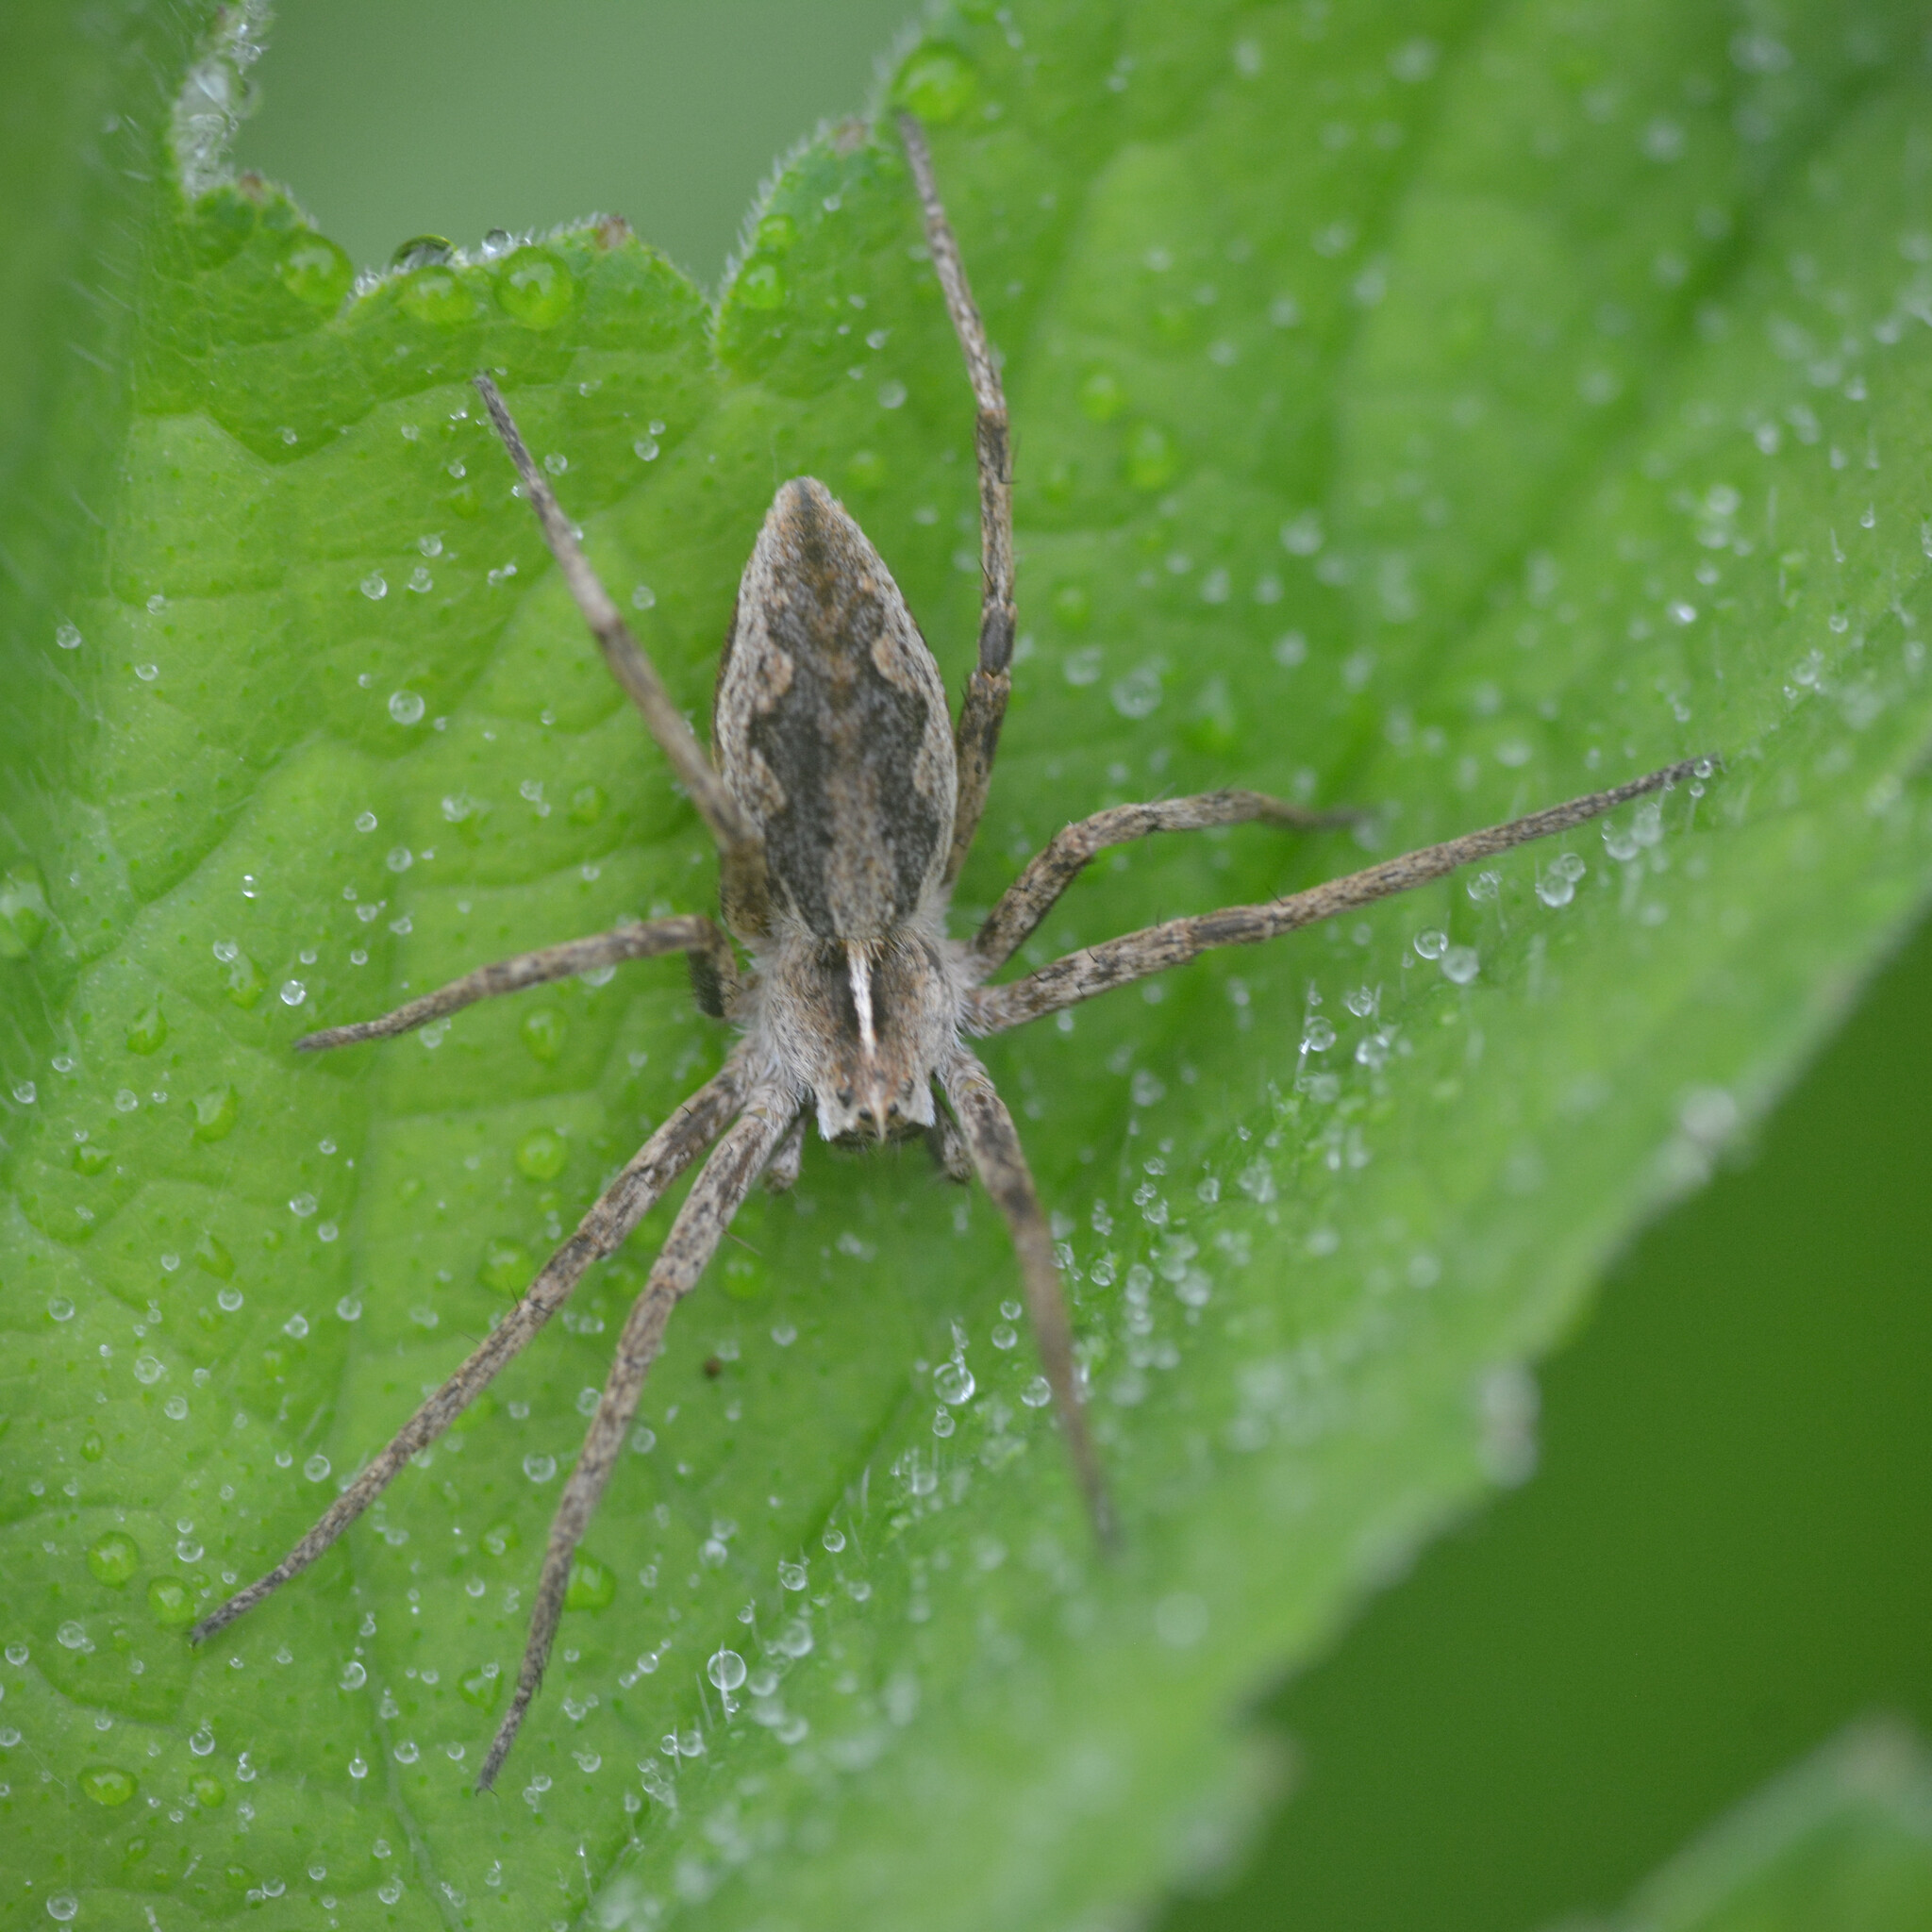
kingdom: Animalia
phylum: Arthropoda
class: Arachnida
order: Araneae
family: Pisauridae
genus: Pisaura
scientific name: Pisaura mirabilis
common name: Tent spider
